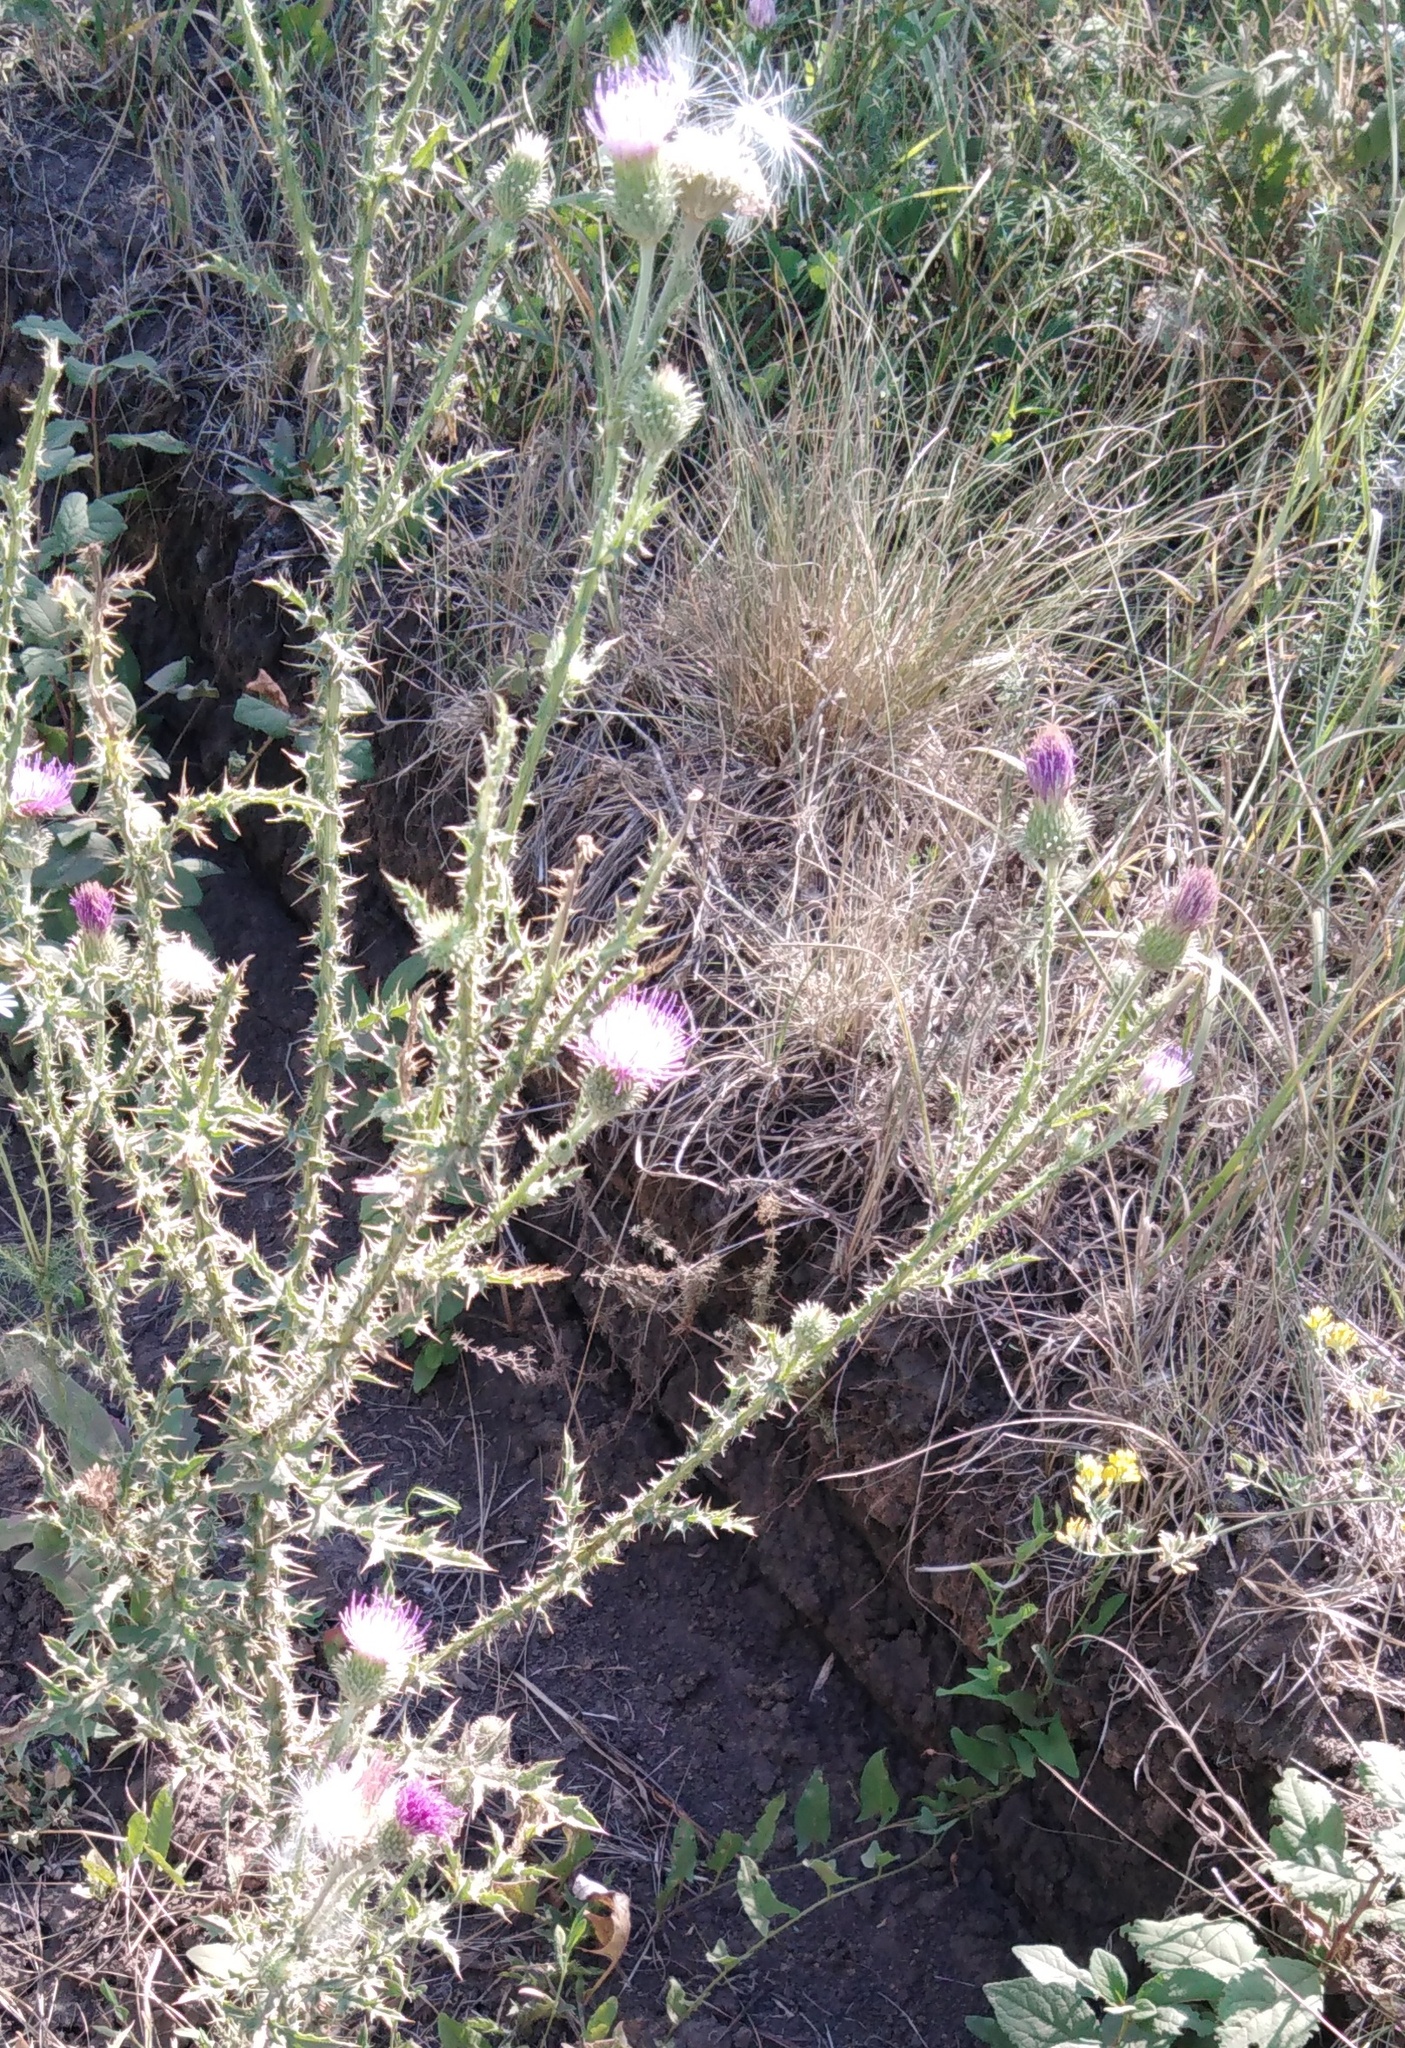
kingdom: Plantae
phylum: Tracheophyta
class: Magnoliopsida
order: Asterales
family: Asteraceae
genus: Carduus
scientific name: Carduus acanthoides
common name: Plumeless thistle
